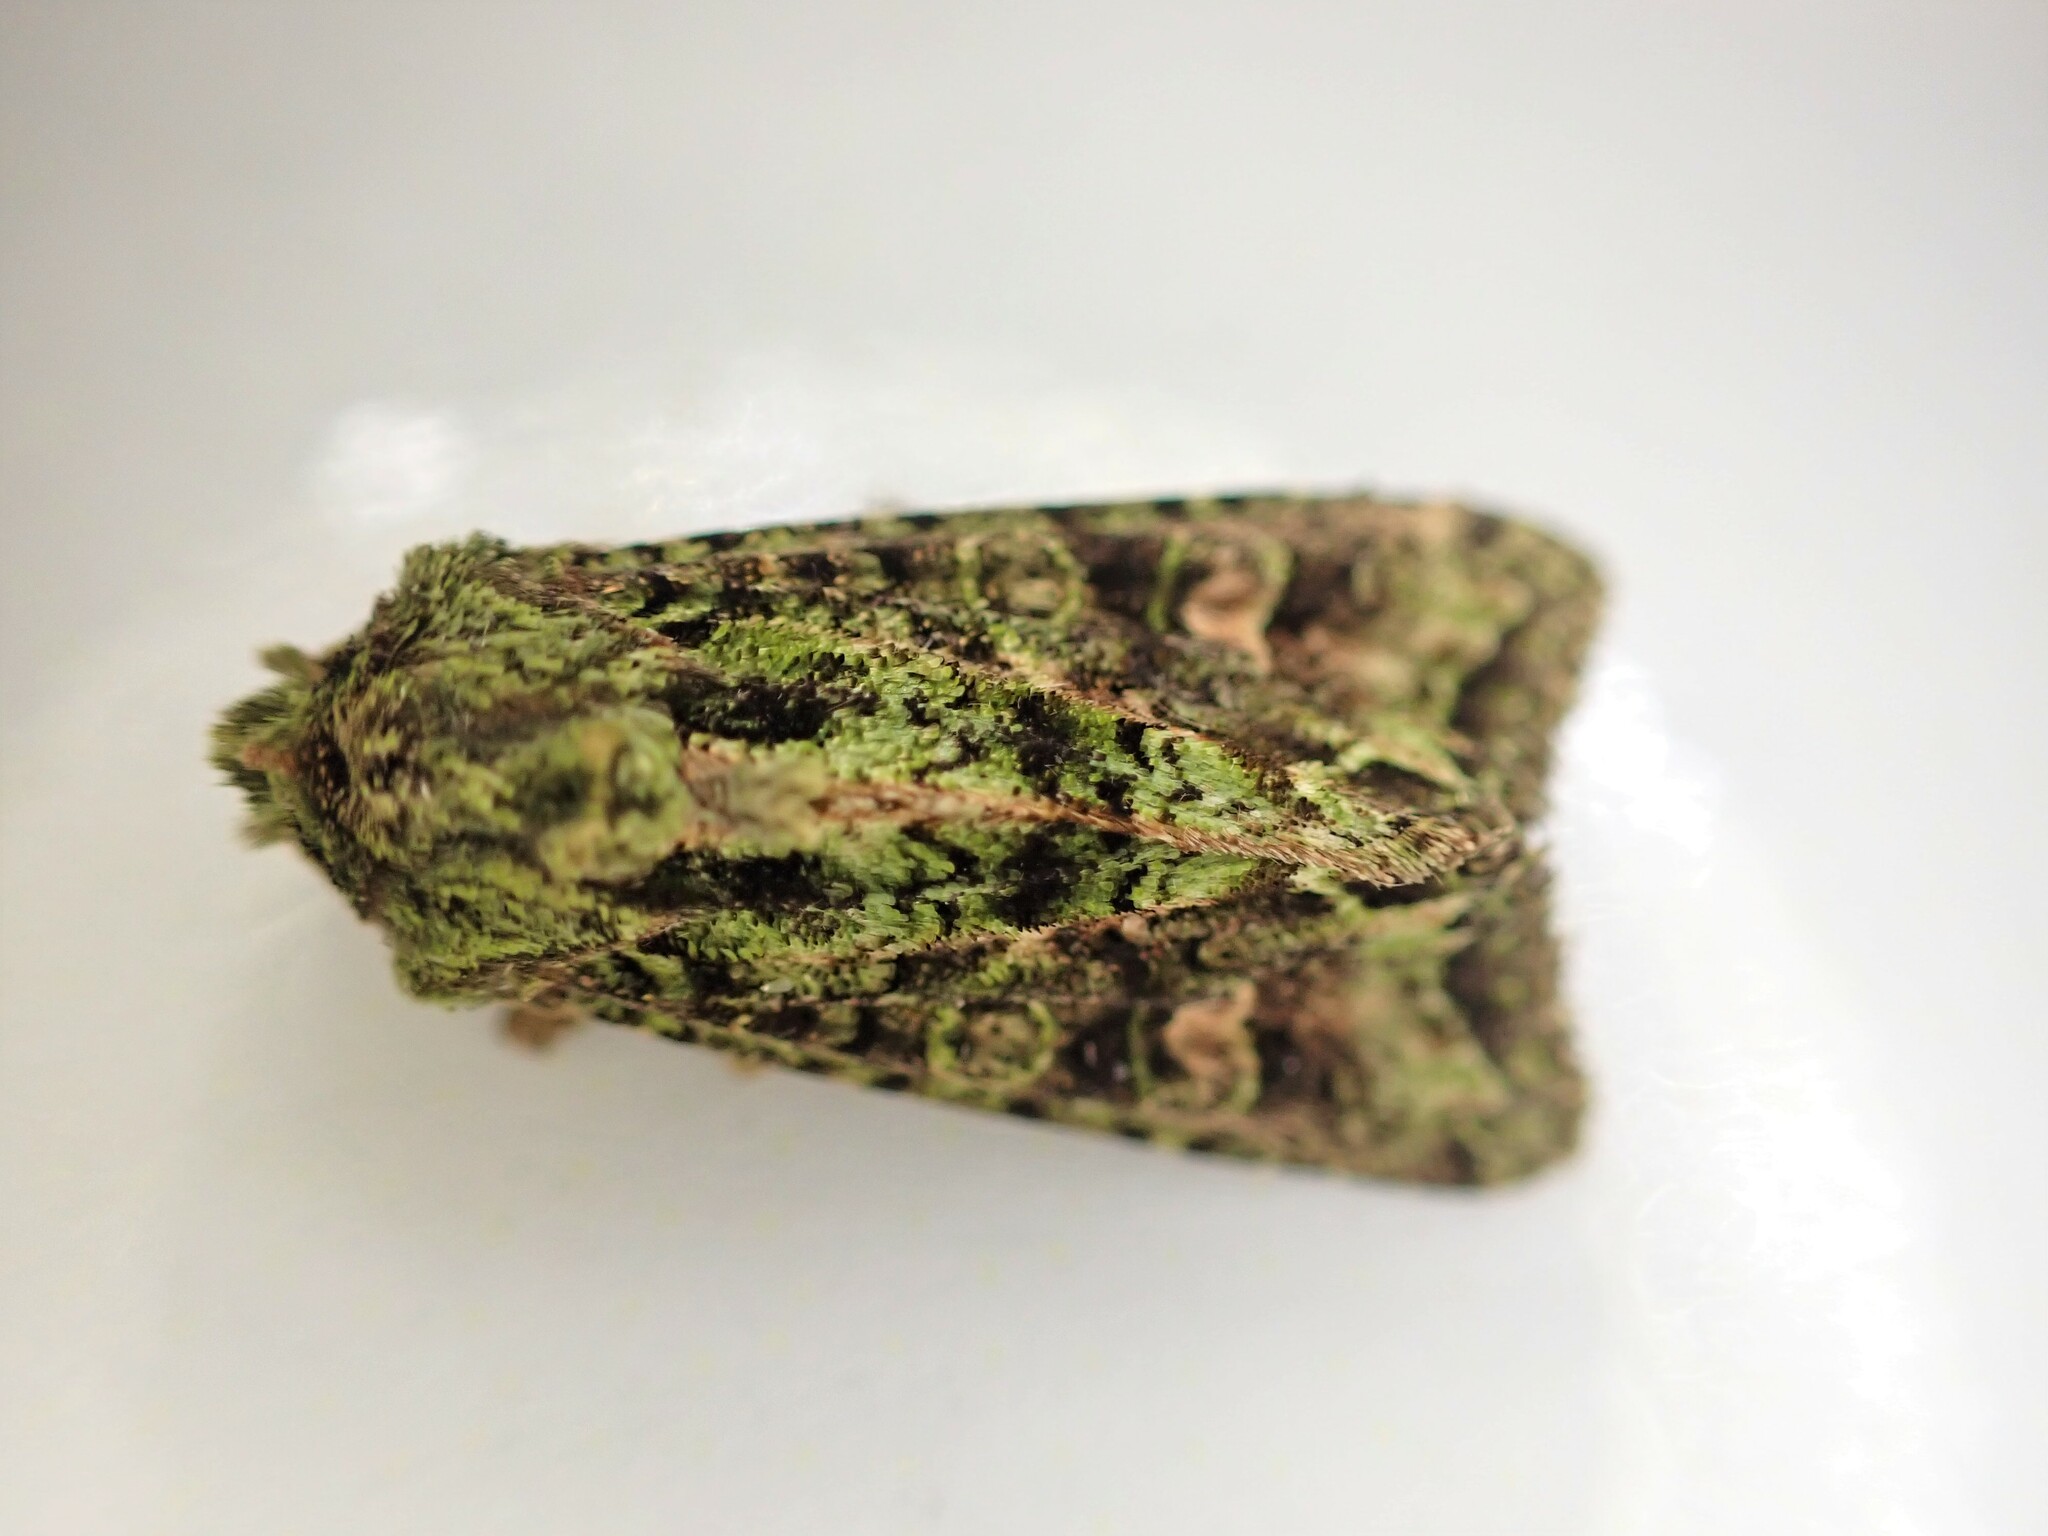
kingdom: Animalia
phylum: Arthropoda
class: Insecta
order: Lepidoptera
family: Noctuidae
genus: Ichneutica
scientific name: Ichneutica
